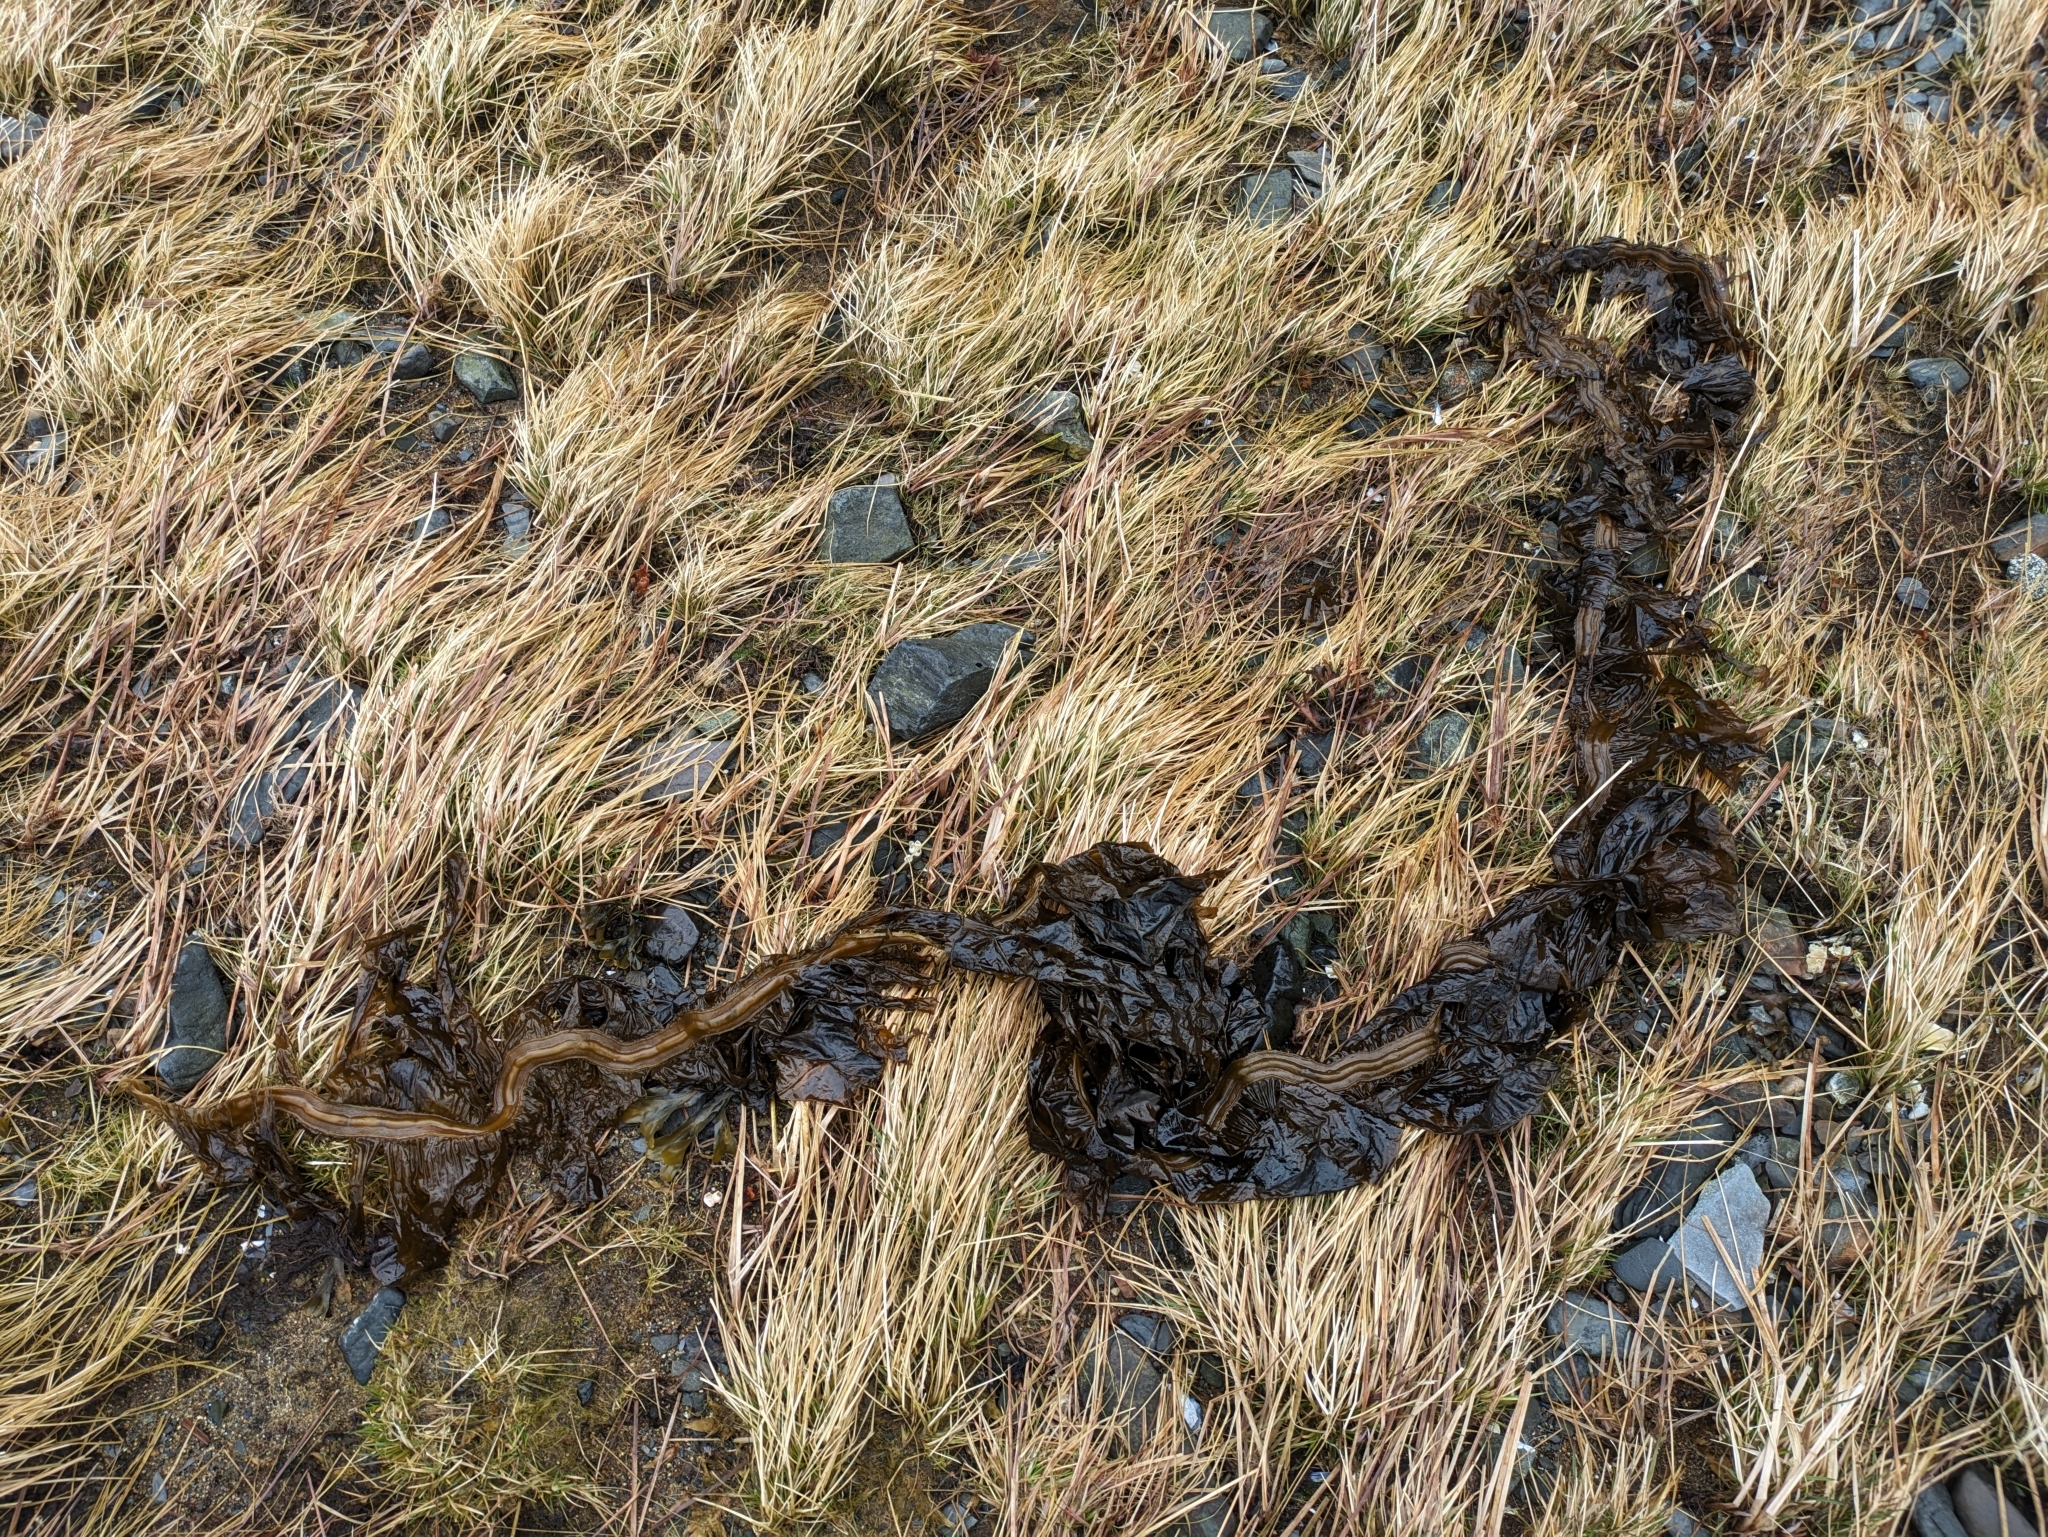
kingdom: Chromista
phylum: Ochrophyta
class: Phaeophyceae
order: Laminariales
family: Alariaceae
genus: Eualaria
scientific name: Eualaria
